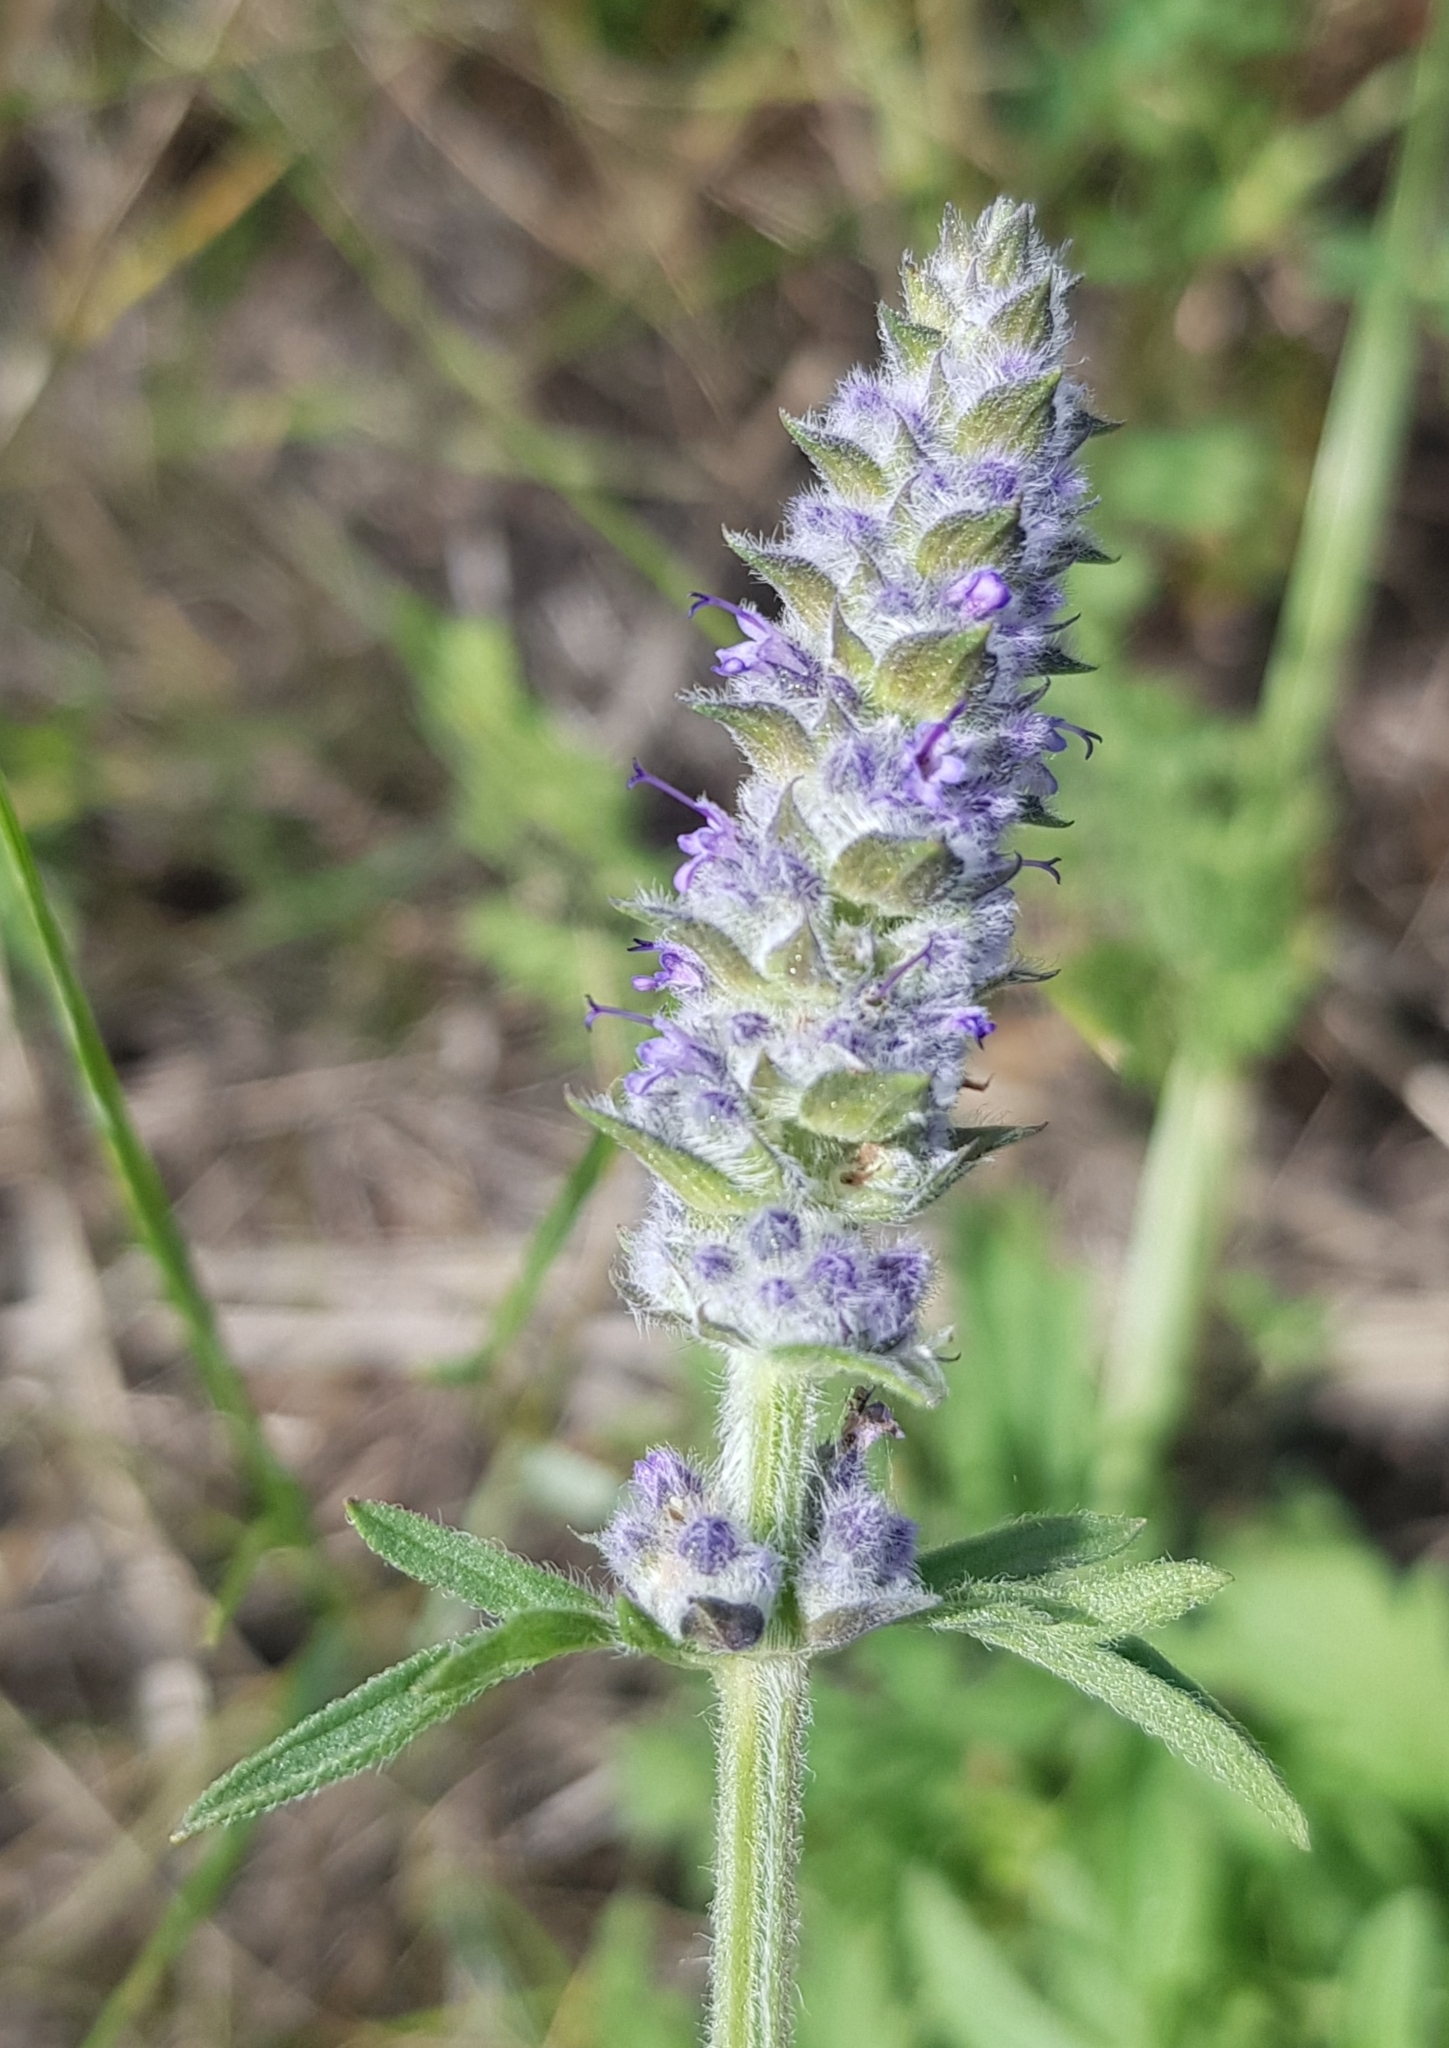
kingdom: Plantae
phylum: Tracheophyta
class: Magnoliopsida
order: Lamiales
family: Lamiaceae
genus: Nepeta
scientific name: Nepeta multifida
